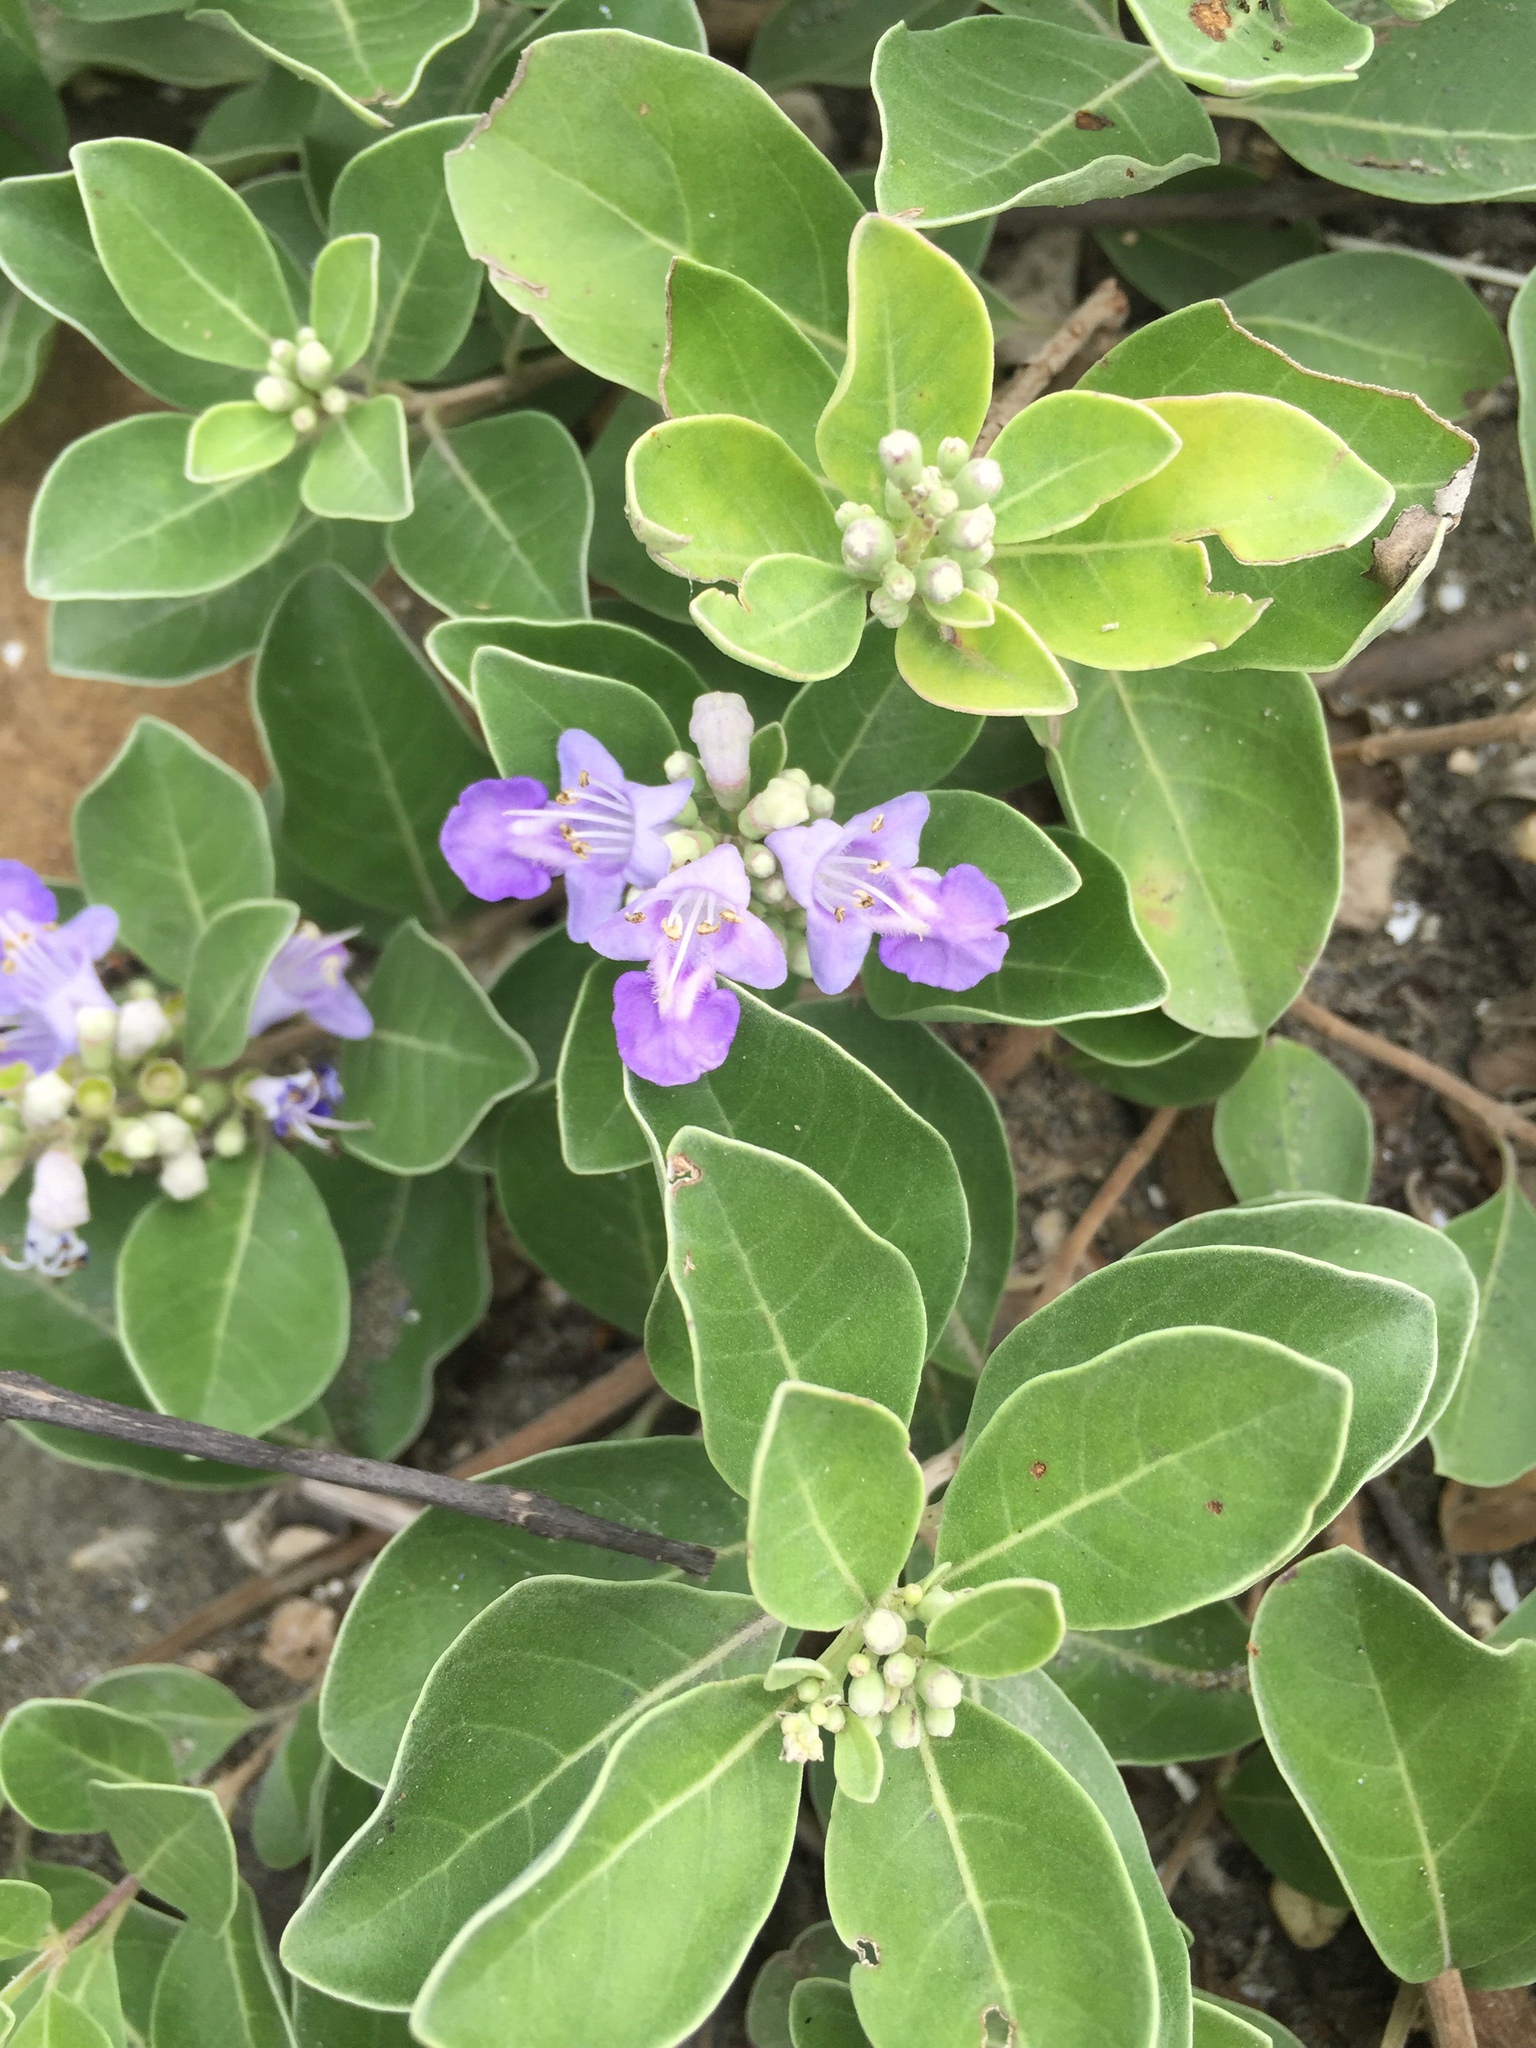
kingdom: Plantae
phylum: Tracheophyta
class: Magnoliopsida
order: Lamiales
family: Lamiaceae
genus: Vitex
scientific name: Vitex rotundifolia
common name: Beach vitex
